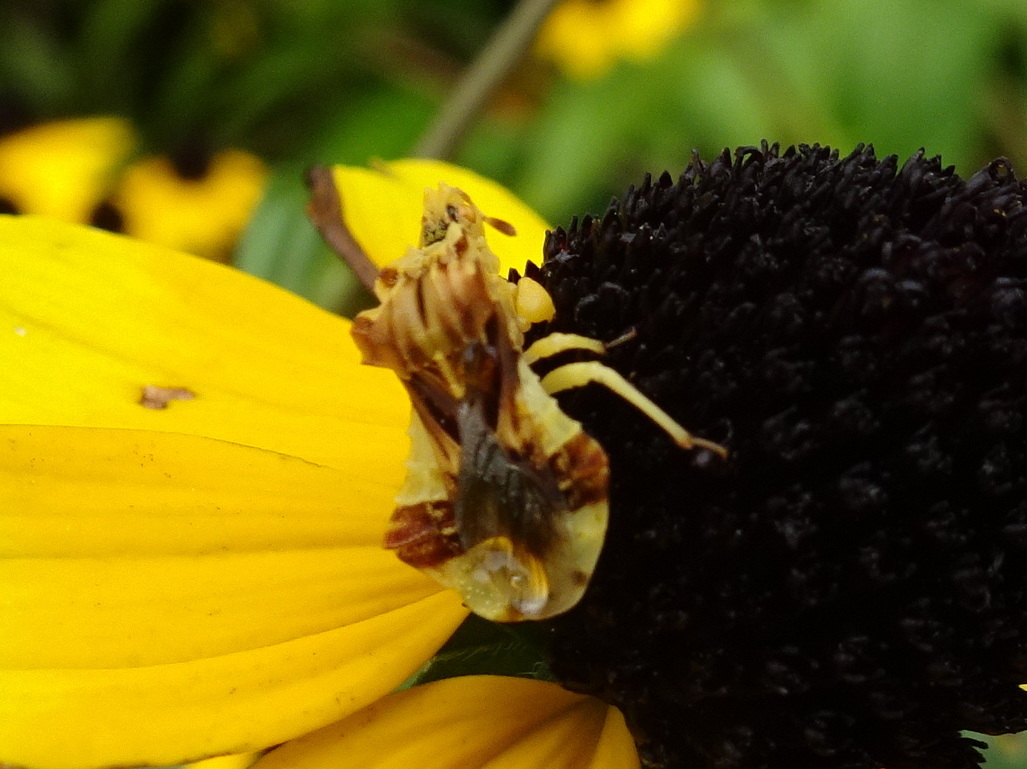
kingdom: Animalia
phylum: Arthropoda
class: Insecta
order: Hemiptera
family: Reduviidae
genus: Phymata
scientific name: Phymata fasciata
